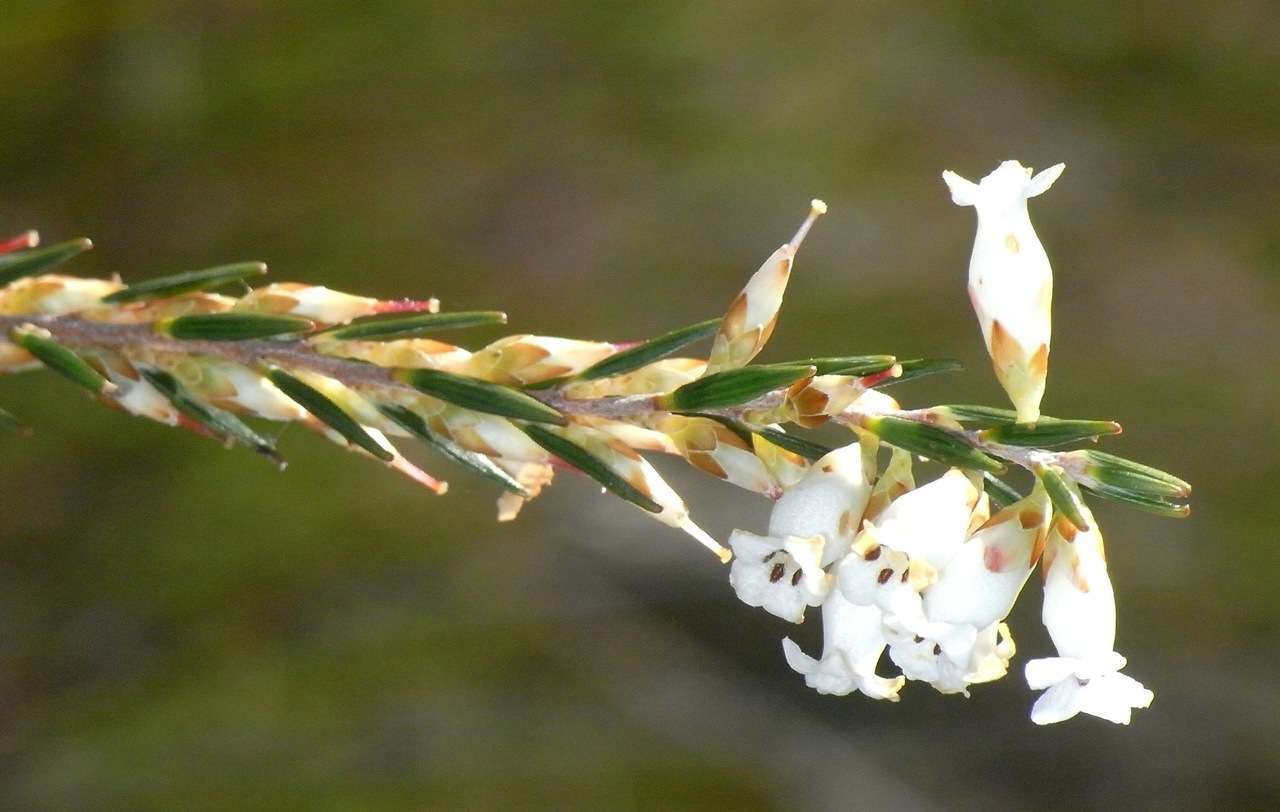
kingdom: Plantae
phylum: Tracheophyta
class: Magnoliopsida
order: Ericales
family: Ericaceae
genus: Epacris
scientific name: Epacris obtusifolia
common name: Blunt-leaf australian-heath
